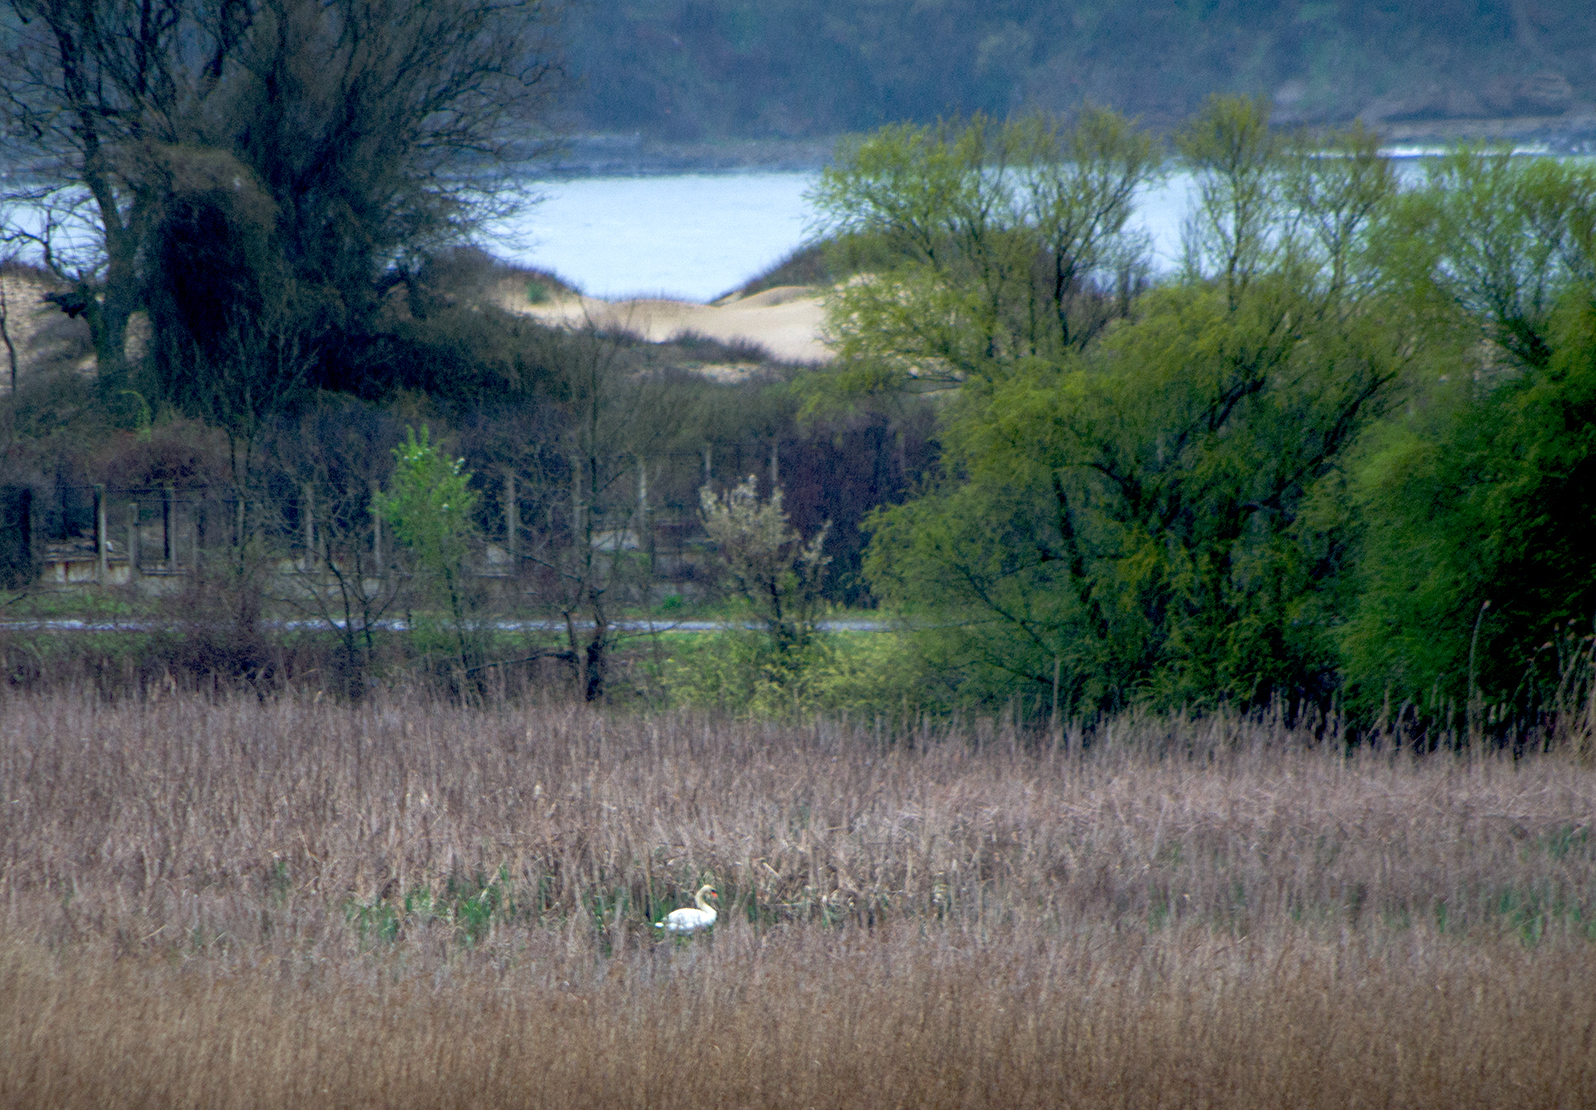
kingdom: Animalia
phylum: Chordata
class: Aves
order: Anseriformes
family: Anatidae
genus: Cygnus
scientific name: Cygnus olor
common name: Mute swan
